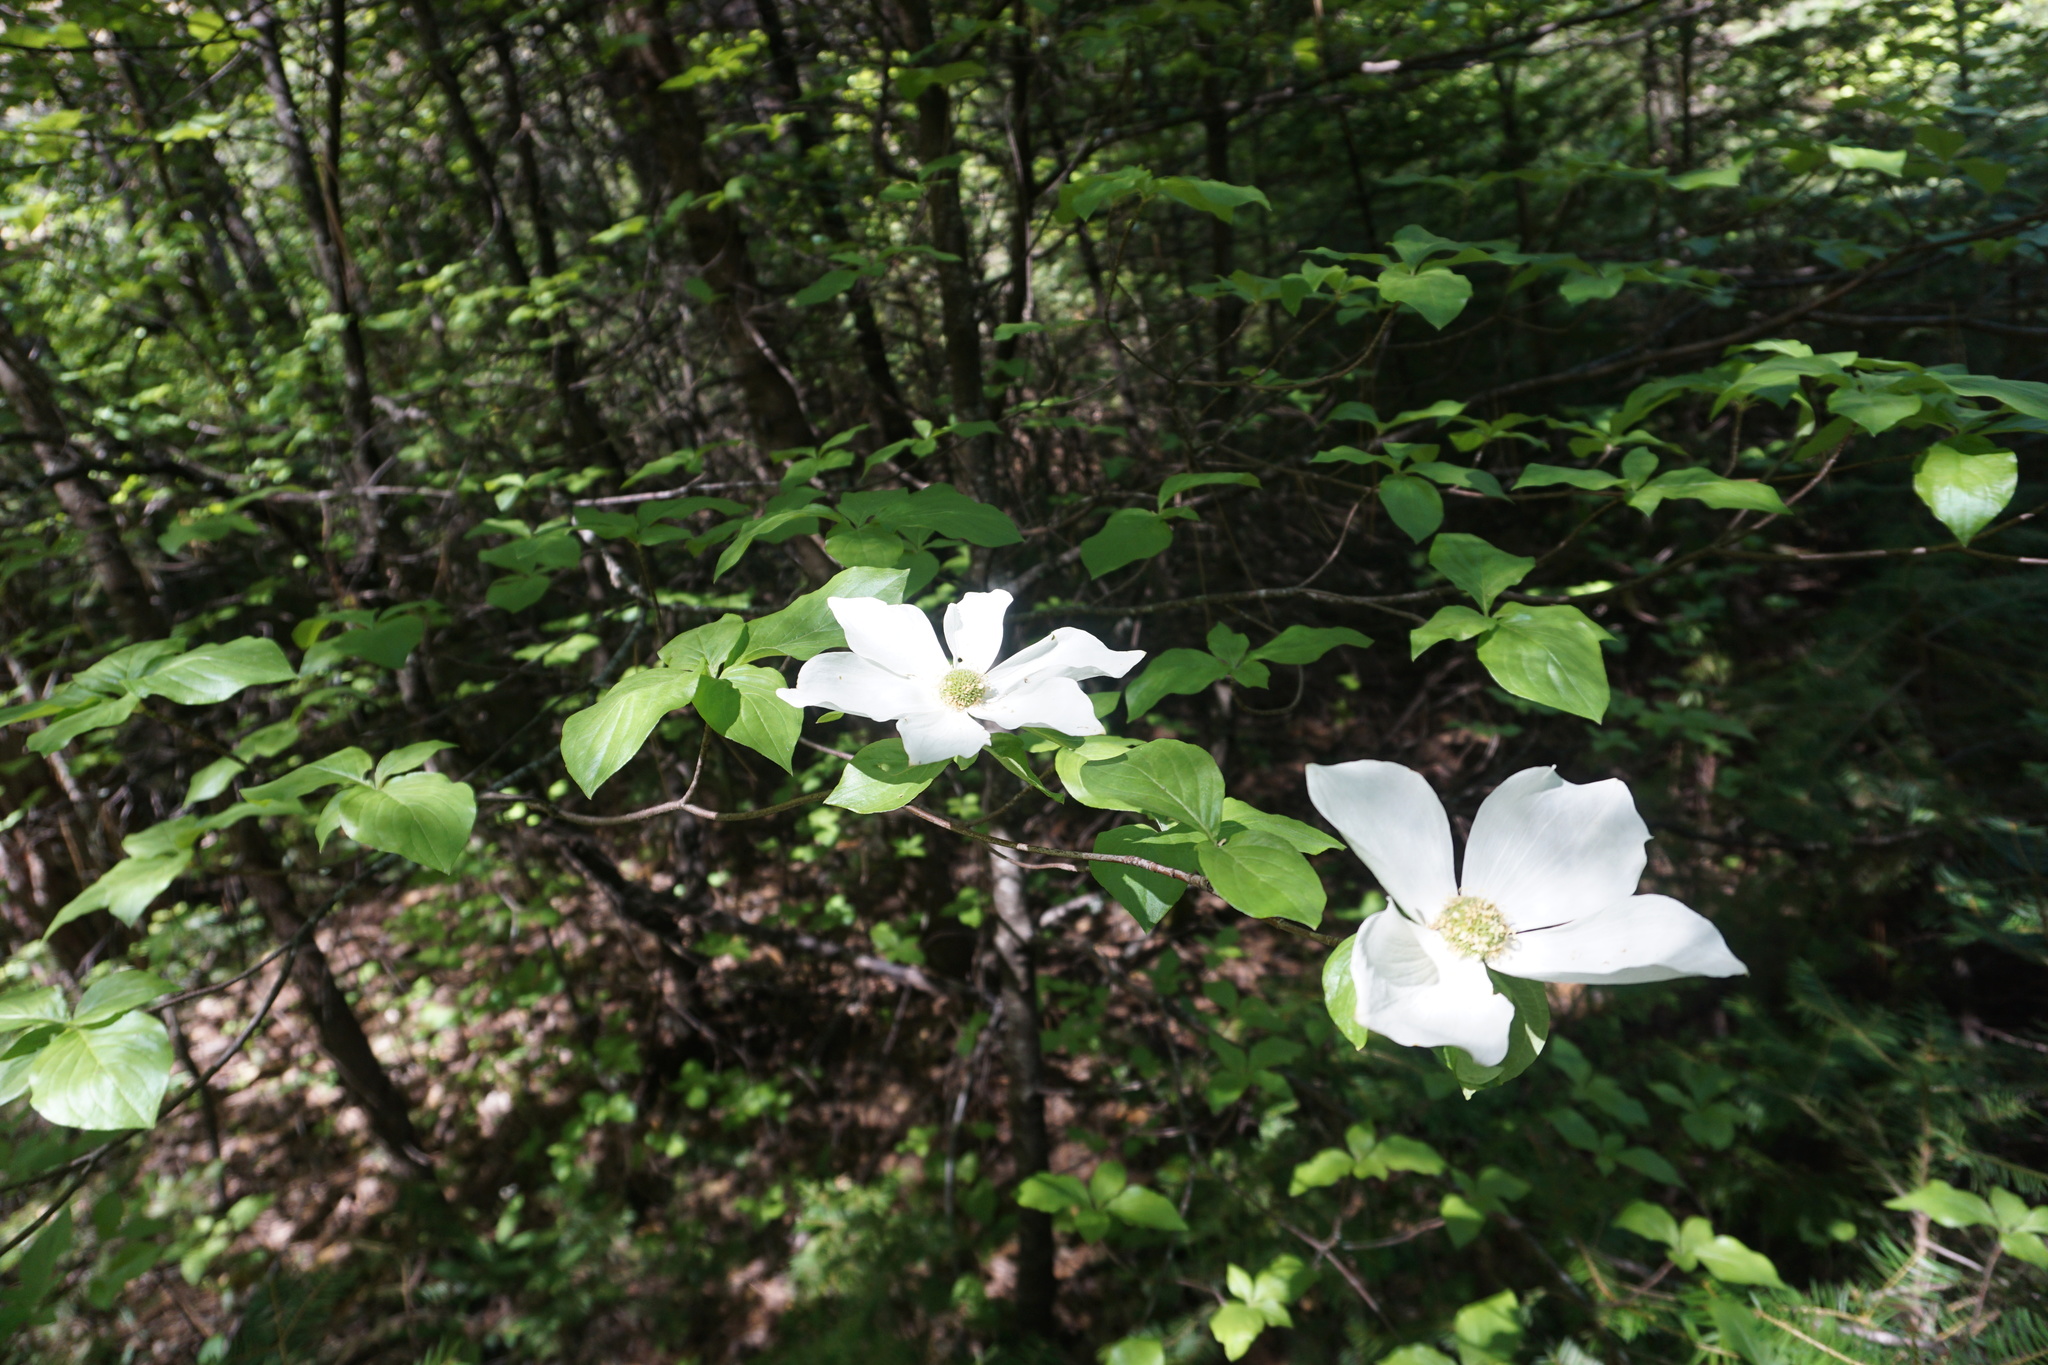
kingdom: Plantae
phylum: Tracheophyta
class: Magnoliopsida
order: Cornales
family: Cornaceae
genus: Cornus
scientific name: Cornus nuttallii
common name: Pacific dogwood
